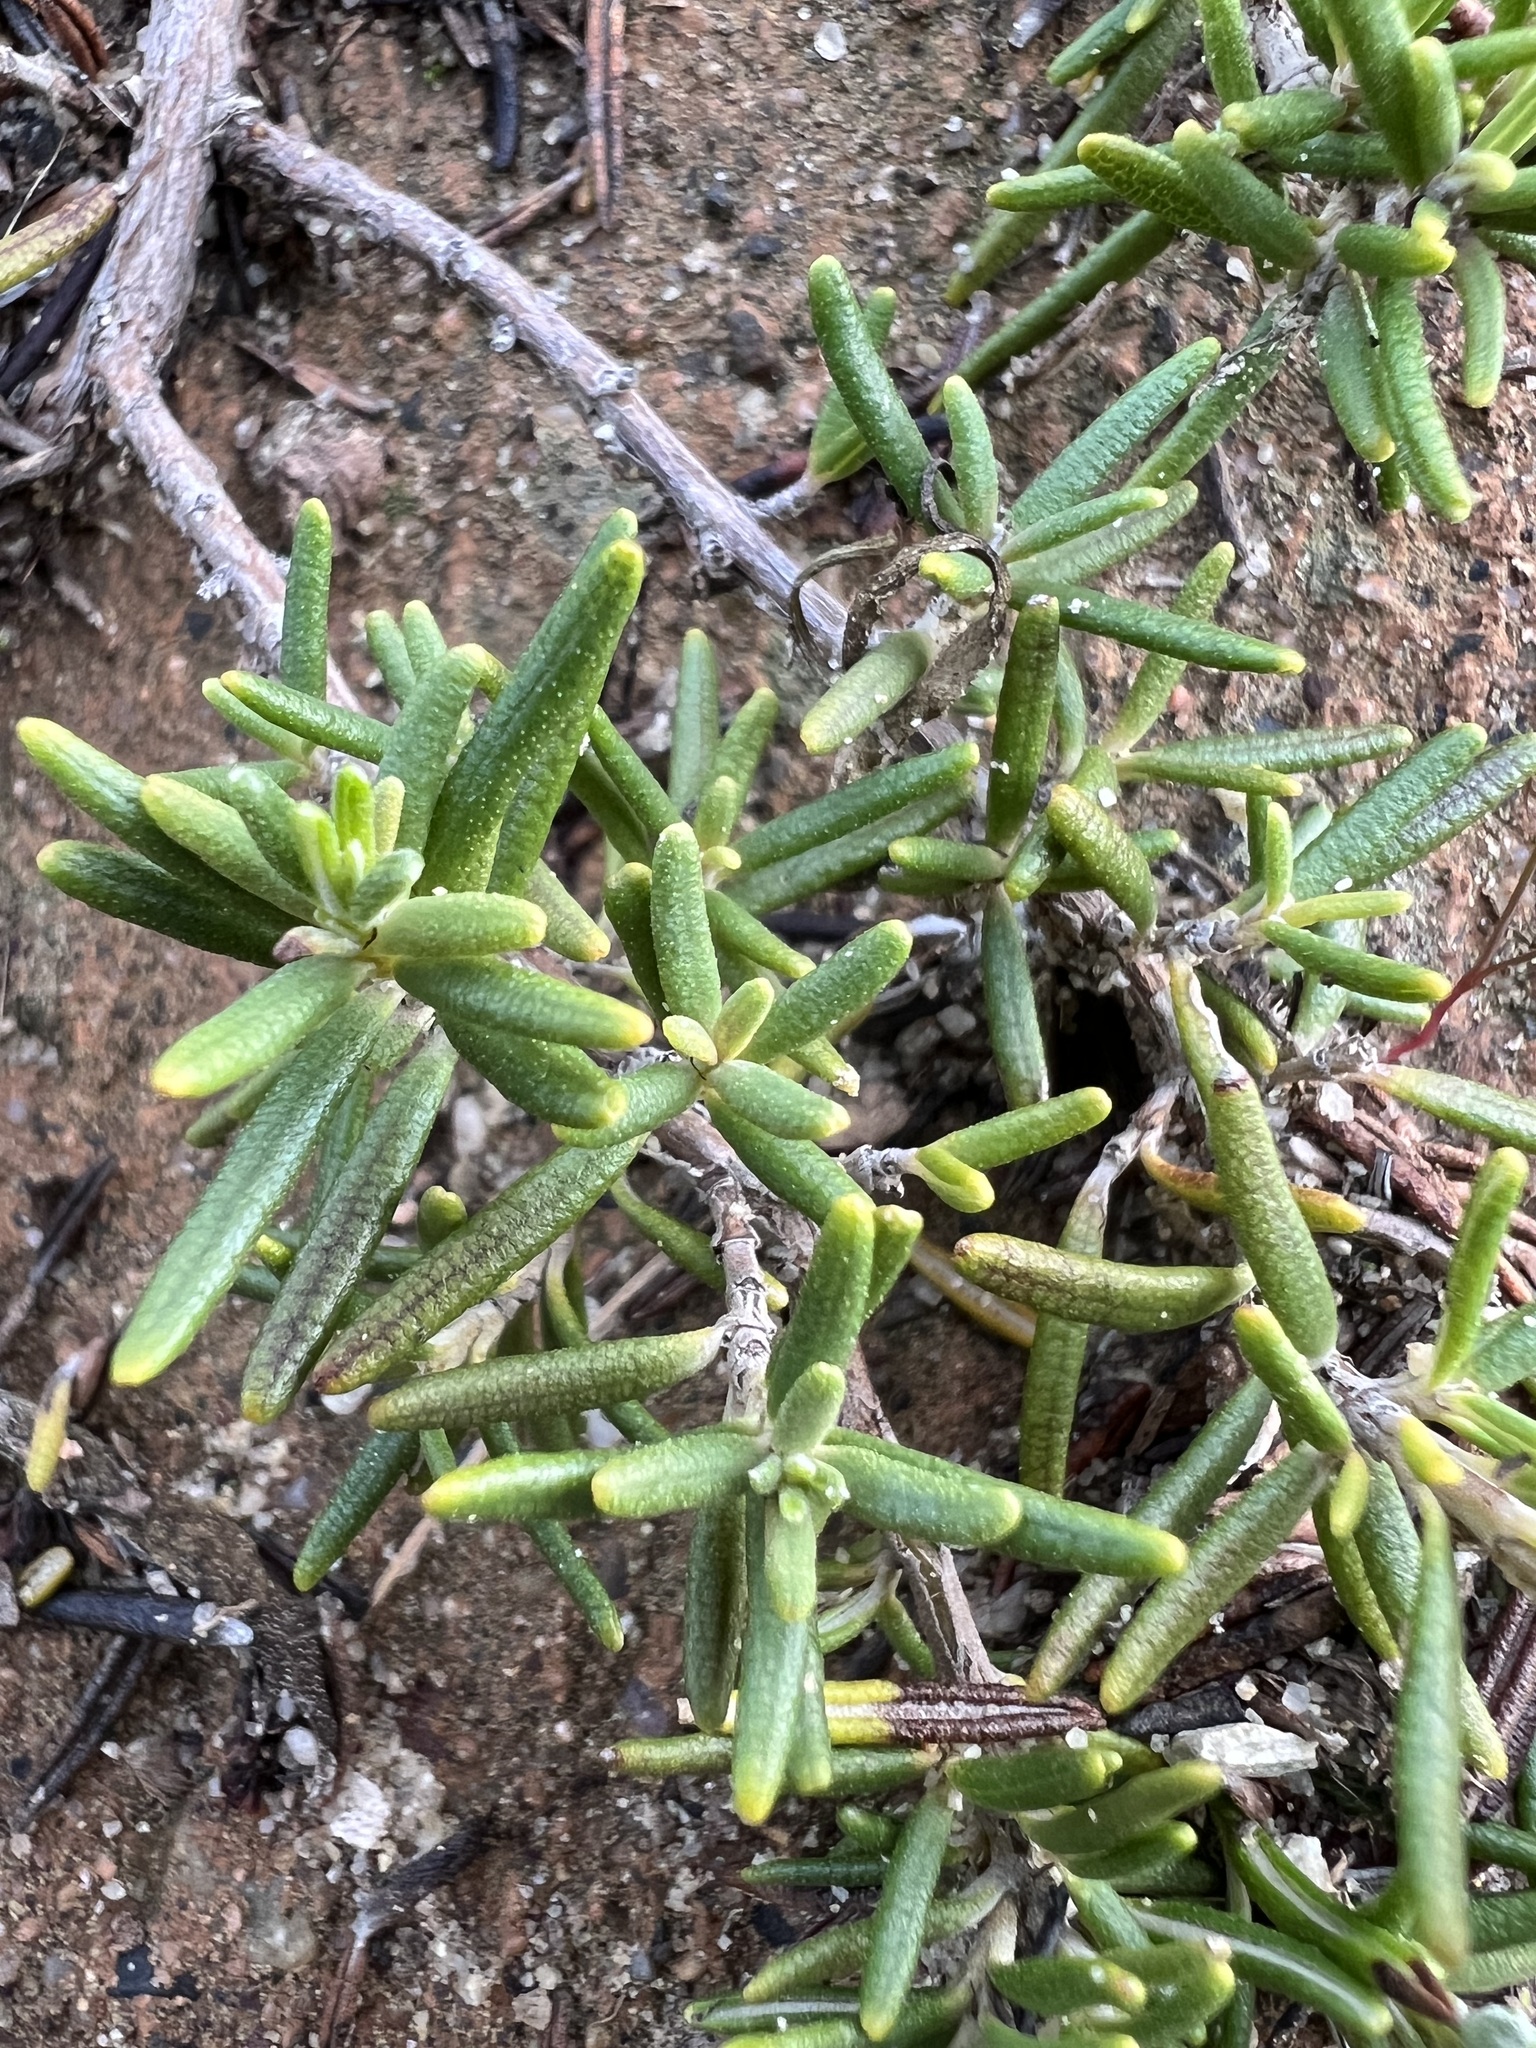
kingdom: Plantae
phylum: Tracheophyta
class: Magnoliopsida
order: Lamiales
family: Lamiaceae
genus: Salvia
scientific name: Salvia rosmarinus
